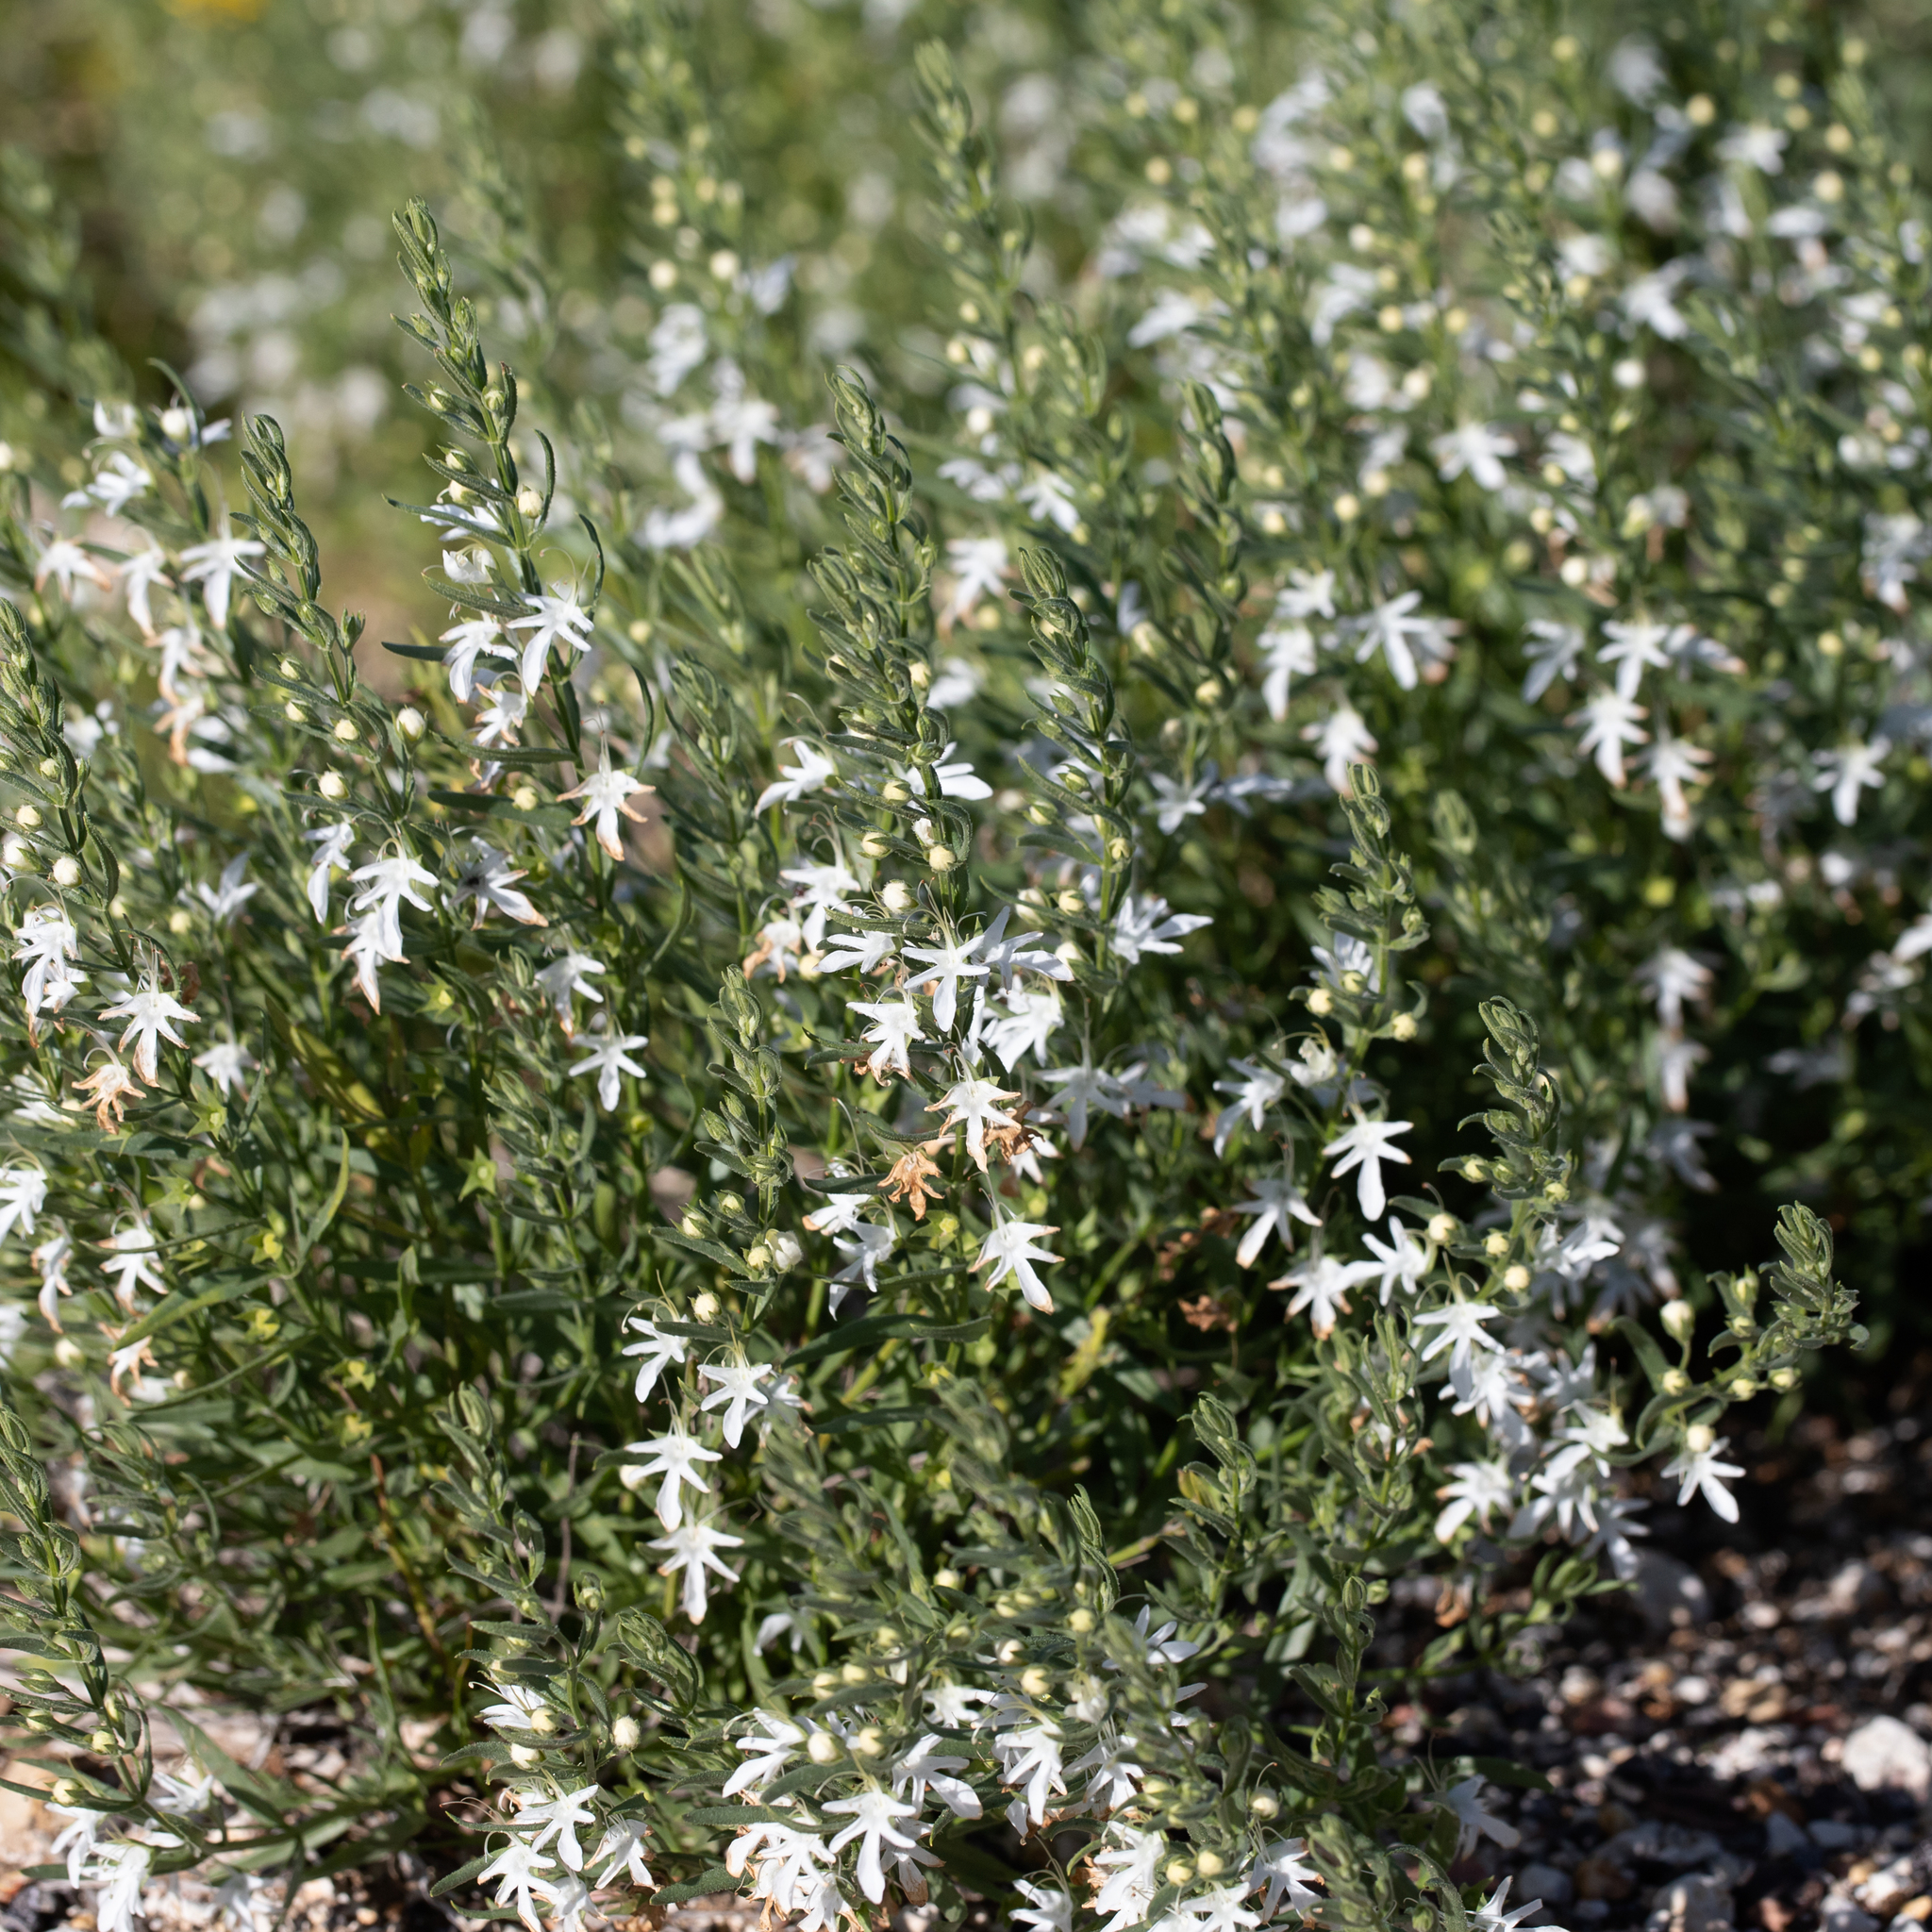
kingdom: Plantae
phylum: Tracheophyta
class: Magnoliopsida
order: Lamiales
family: Lamiaceae
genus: Teucrium
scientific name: Teucrium integrifolium
